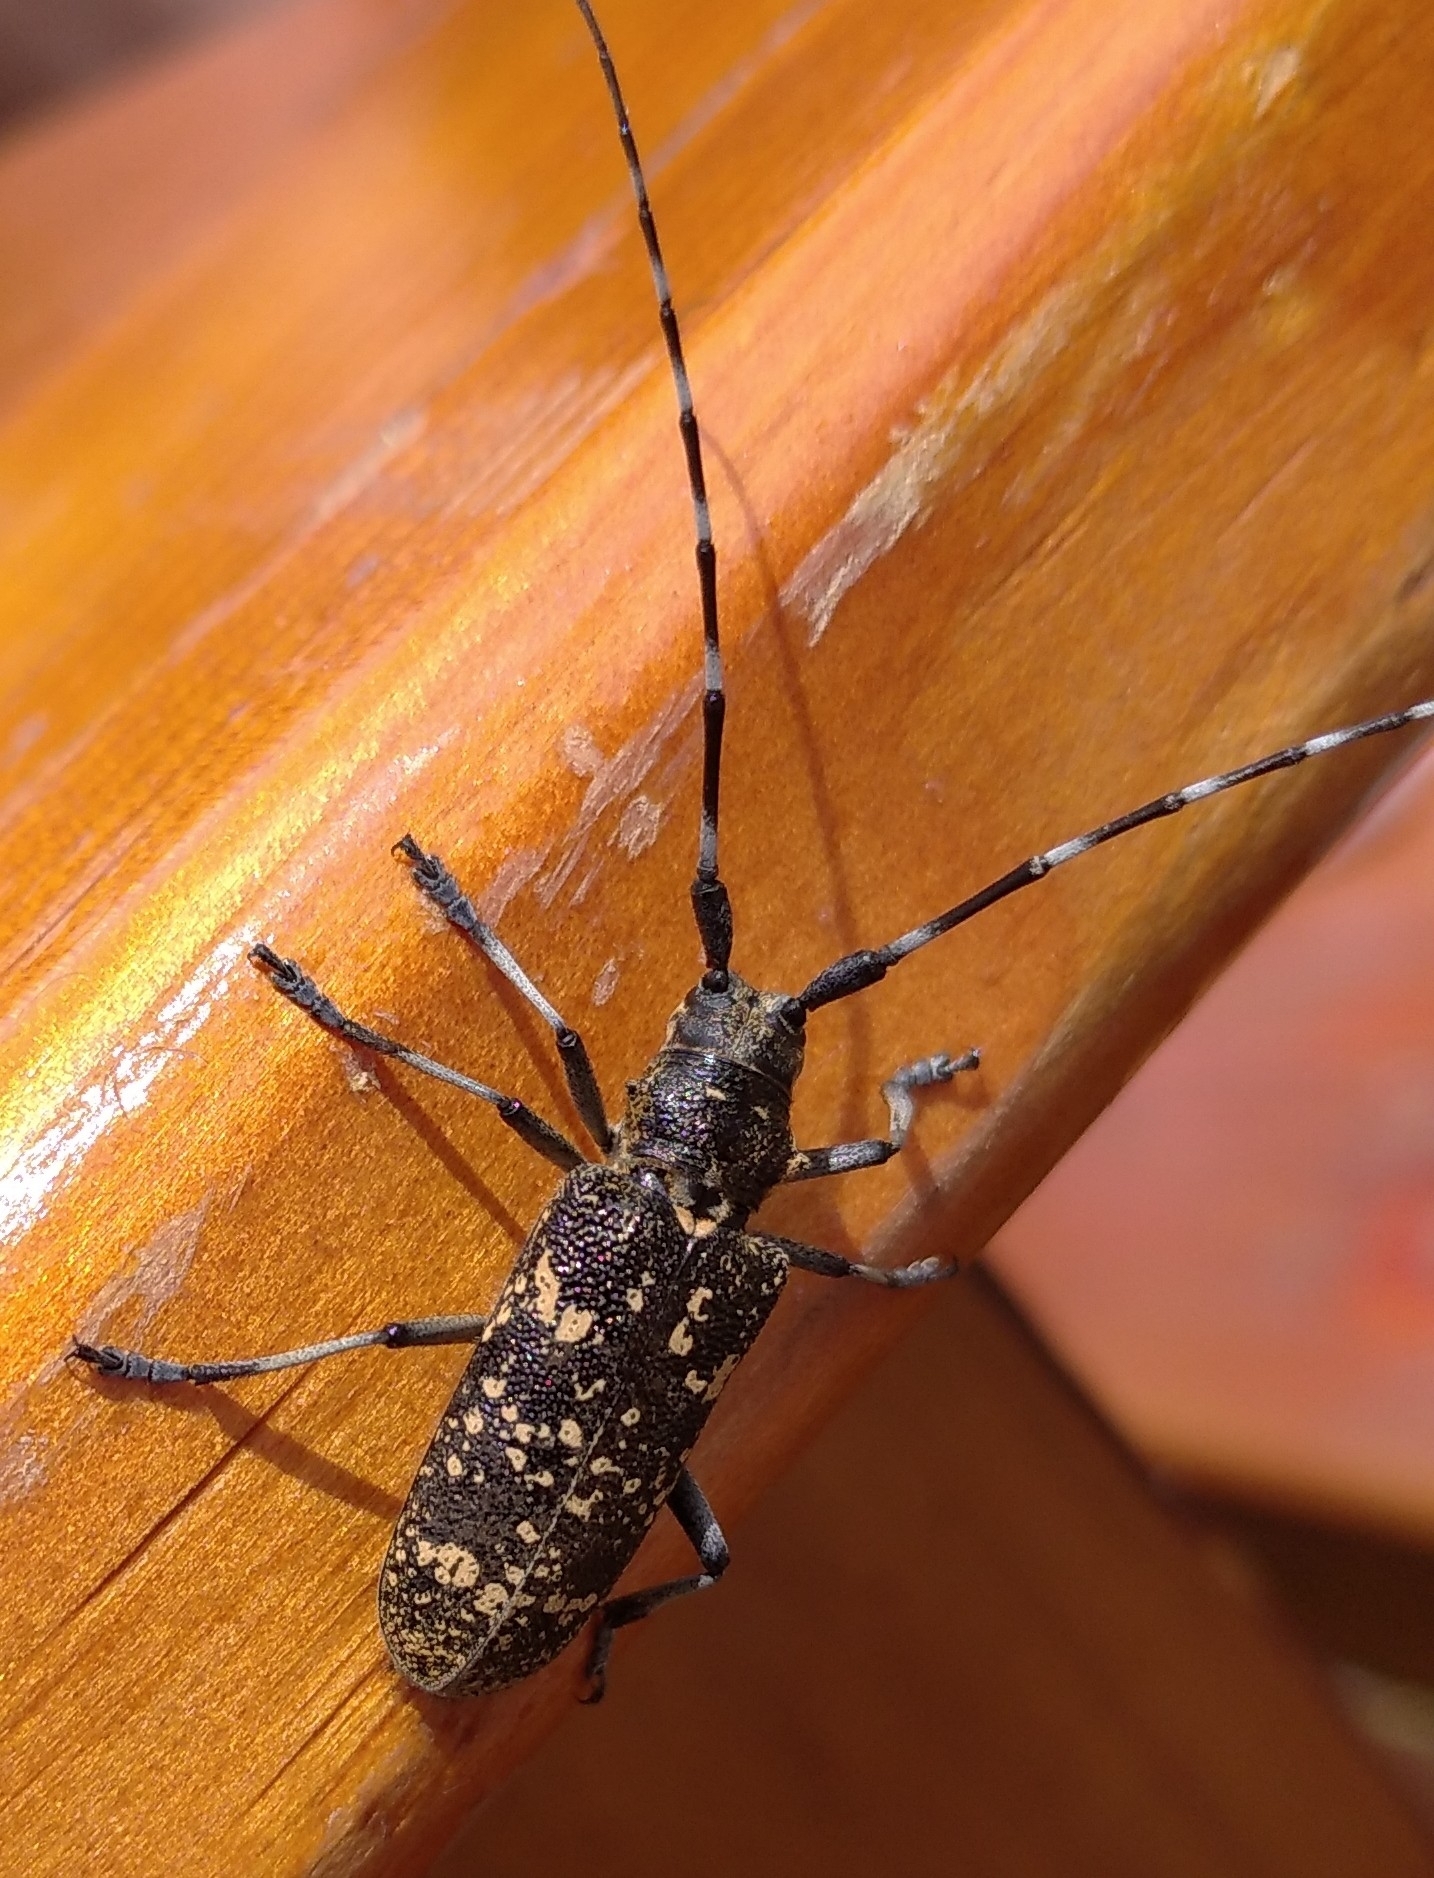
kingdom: Animalia
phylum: Arthropoda
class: Insecta
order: Coleoptera
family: Cerambycidae
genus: Monochamus
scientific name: Monochamus sutor
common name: Pine sawyer
